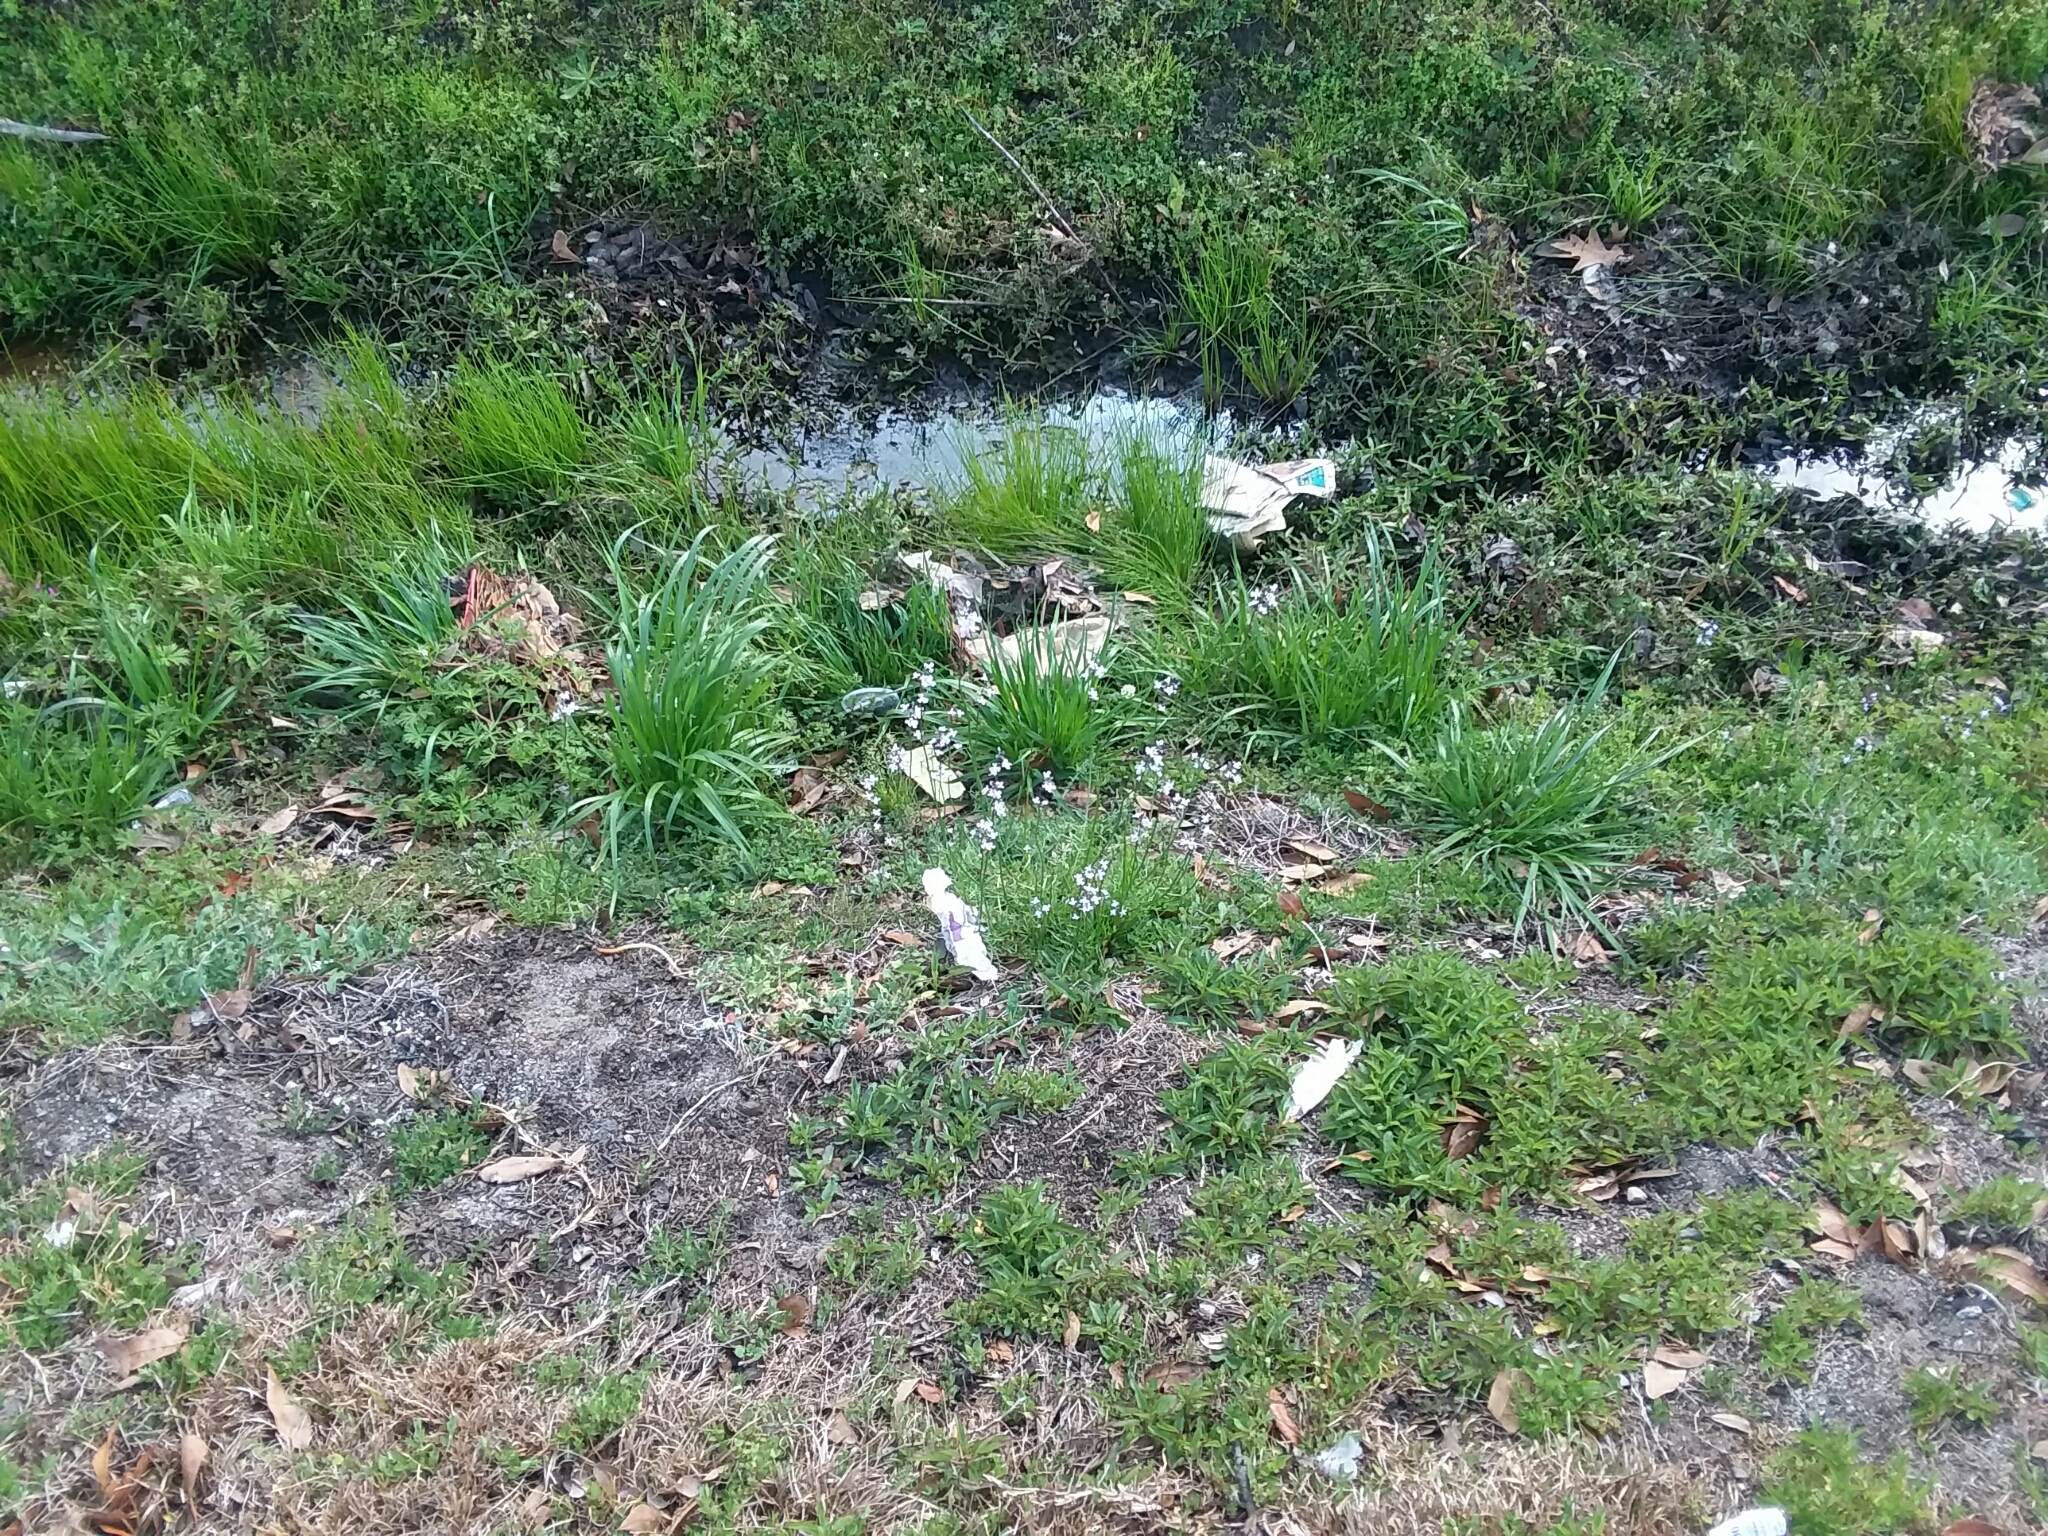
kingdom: Plantae
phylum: Tracheophyta
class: Magnoliopsida
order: Lamiales
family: Plantaginaceae
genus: Nuttallanthus
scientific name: Nuttallanthus canadensis
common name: Blue toadflax
